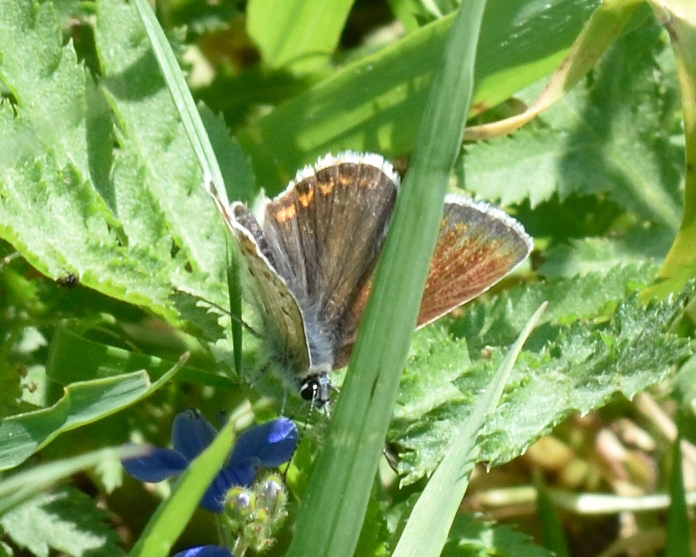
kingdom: Animalia
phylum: Arthropoda
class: Insecta
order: Lepidoptera
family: Lycaenidae
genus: Aricia
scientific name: Aricia artaxerxes
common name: Northern brown argus
